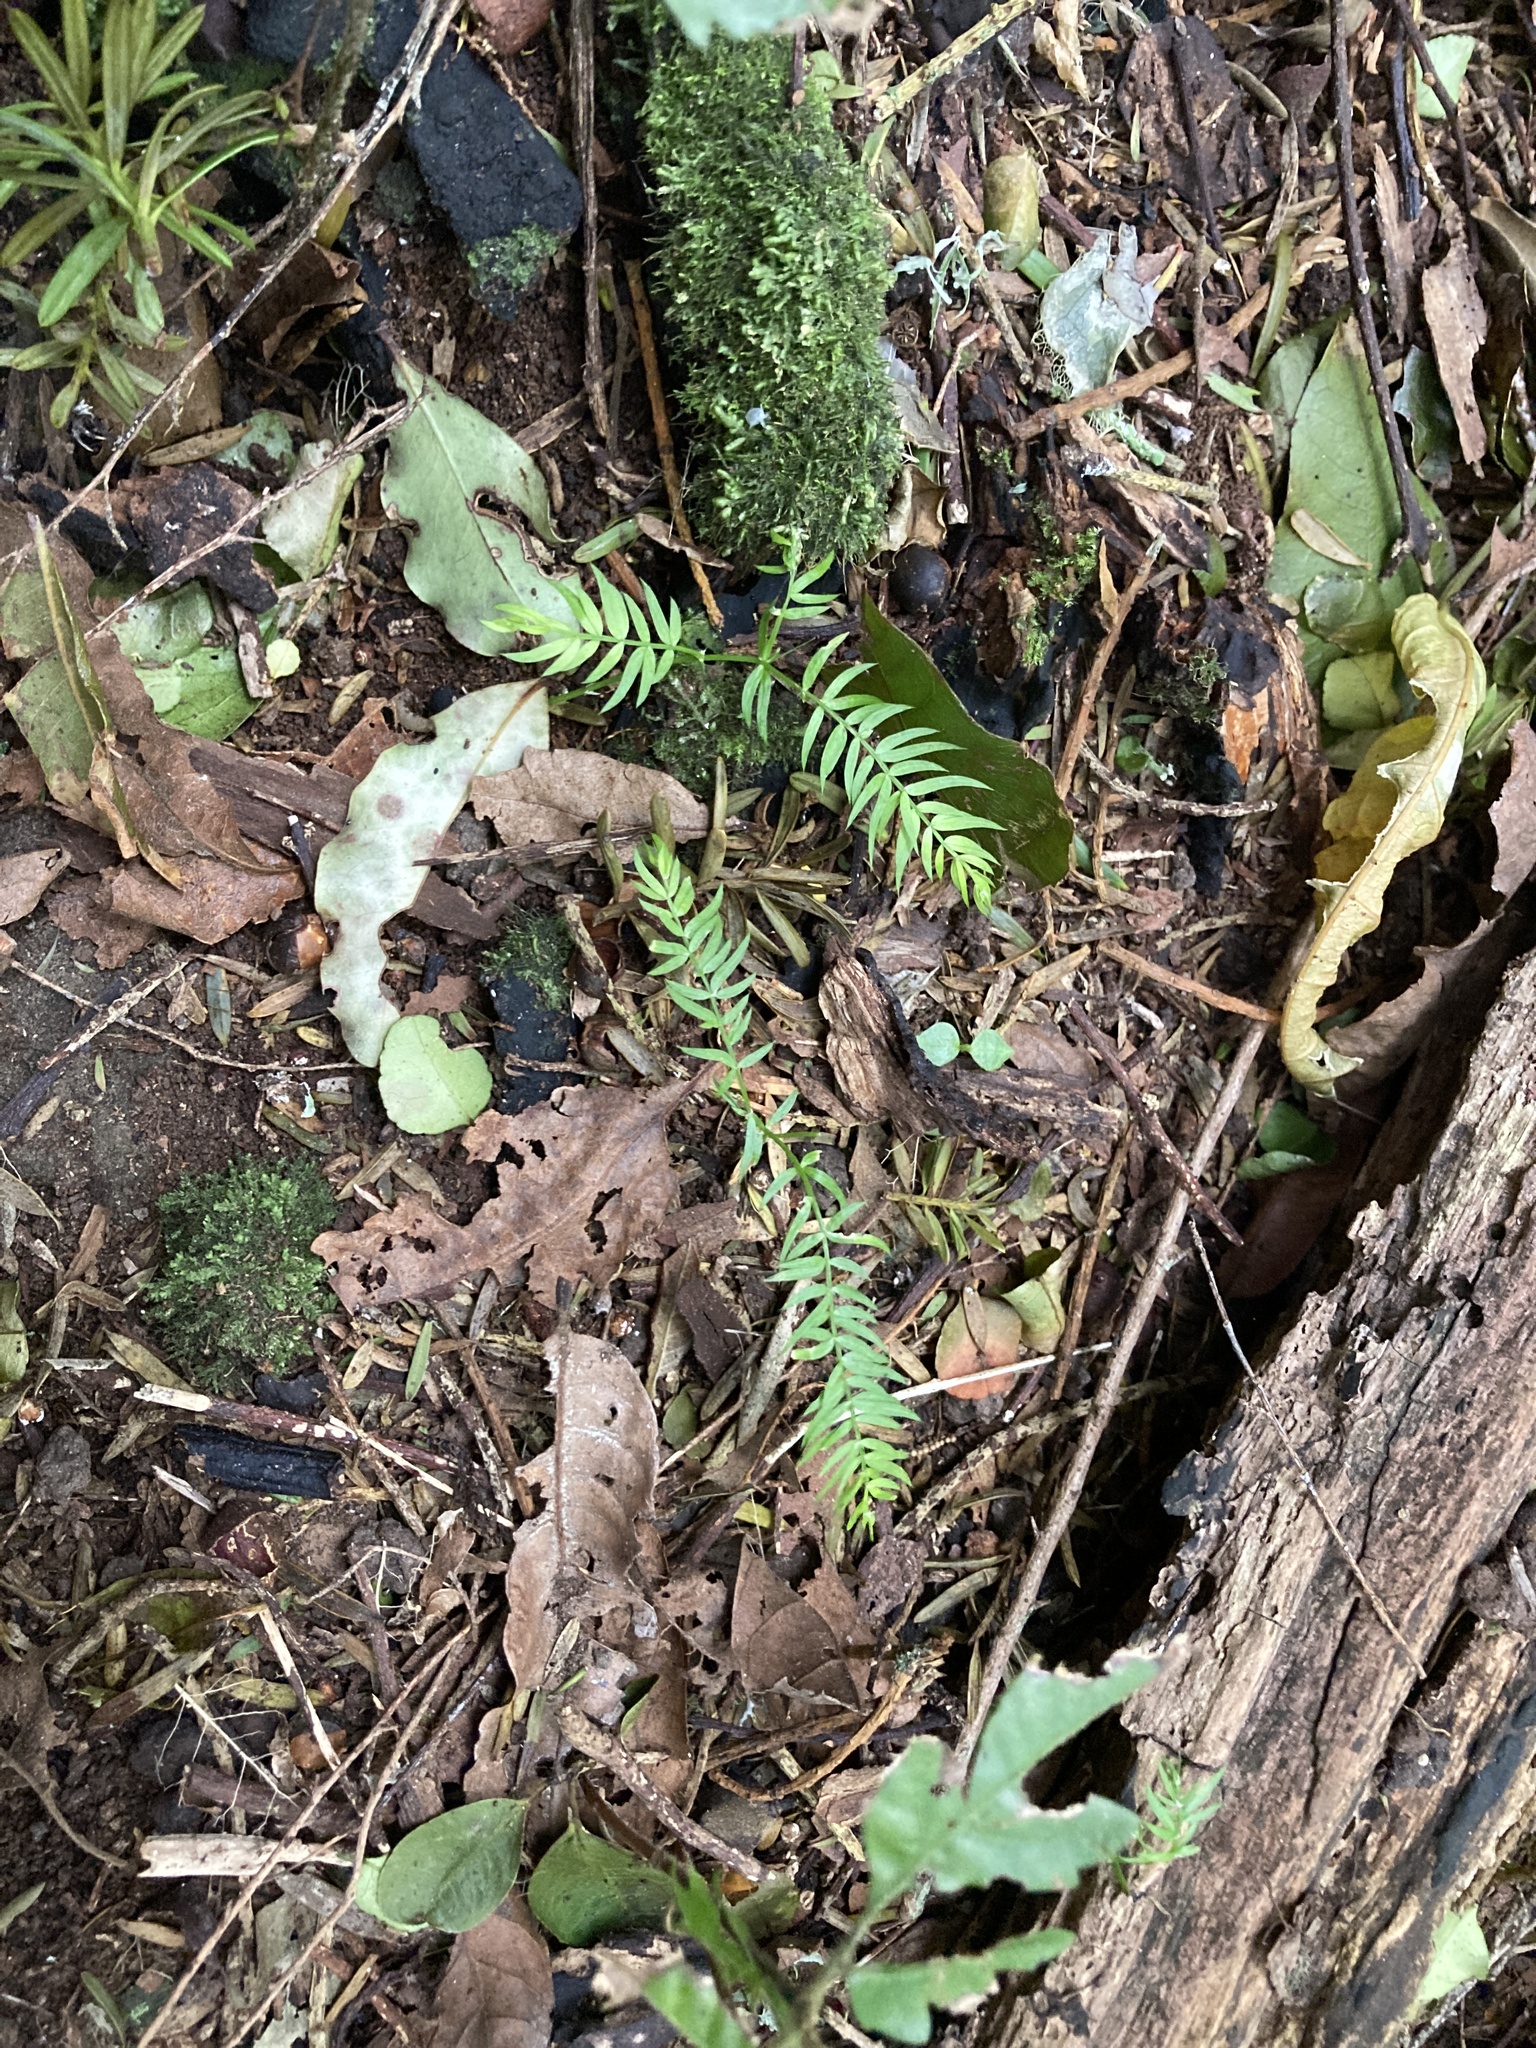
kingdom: Plantae
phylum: Tracheophyta
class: Liliopsida
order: Asparagales
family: Asparagaceae
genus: Asparagus
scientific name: Asparagus scandens
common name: Asparagus-fern
